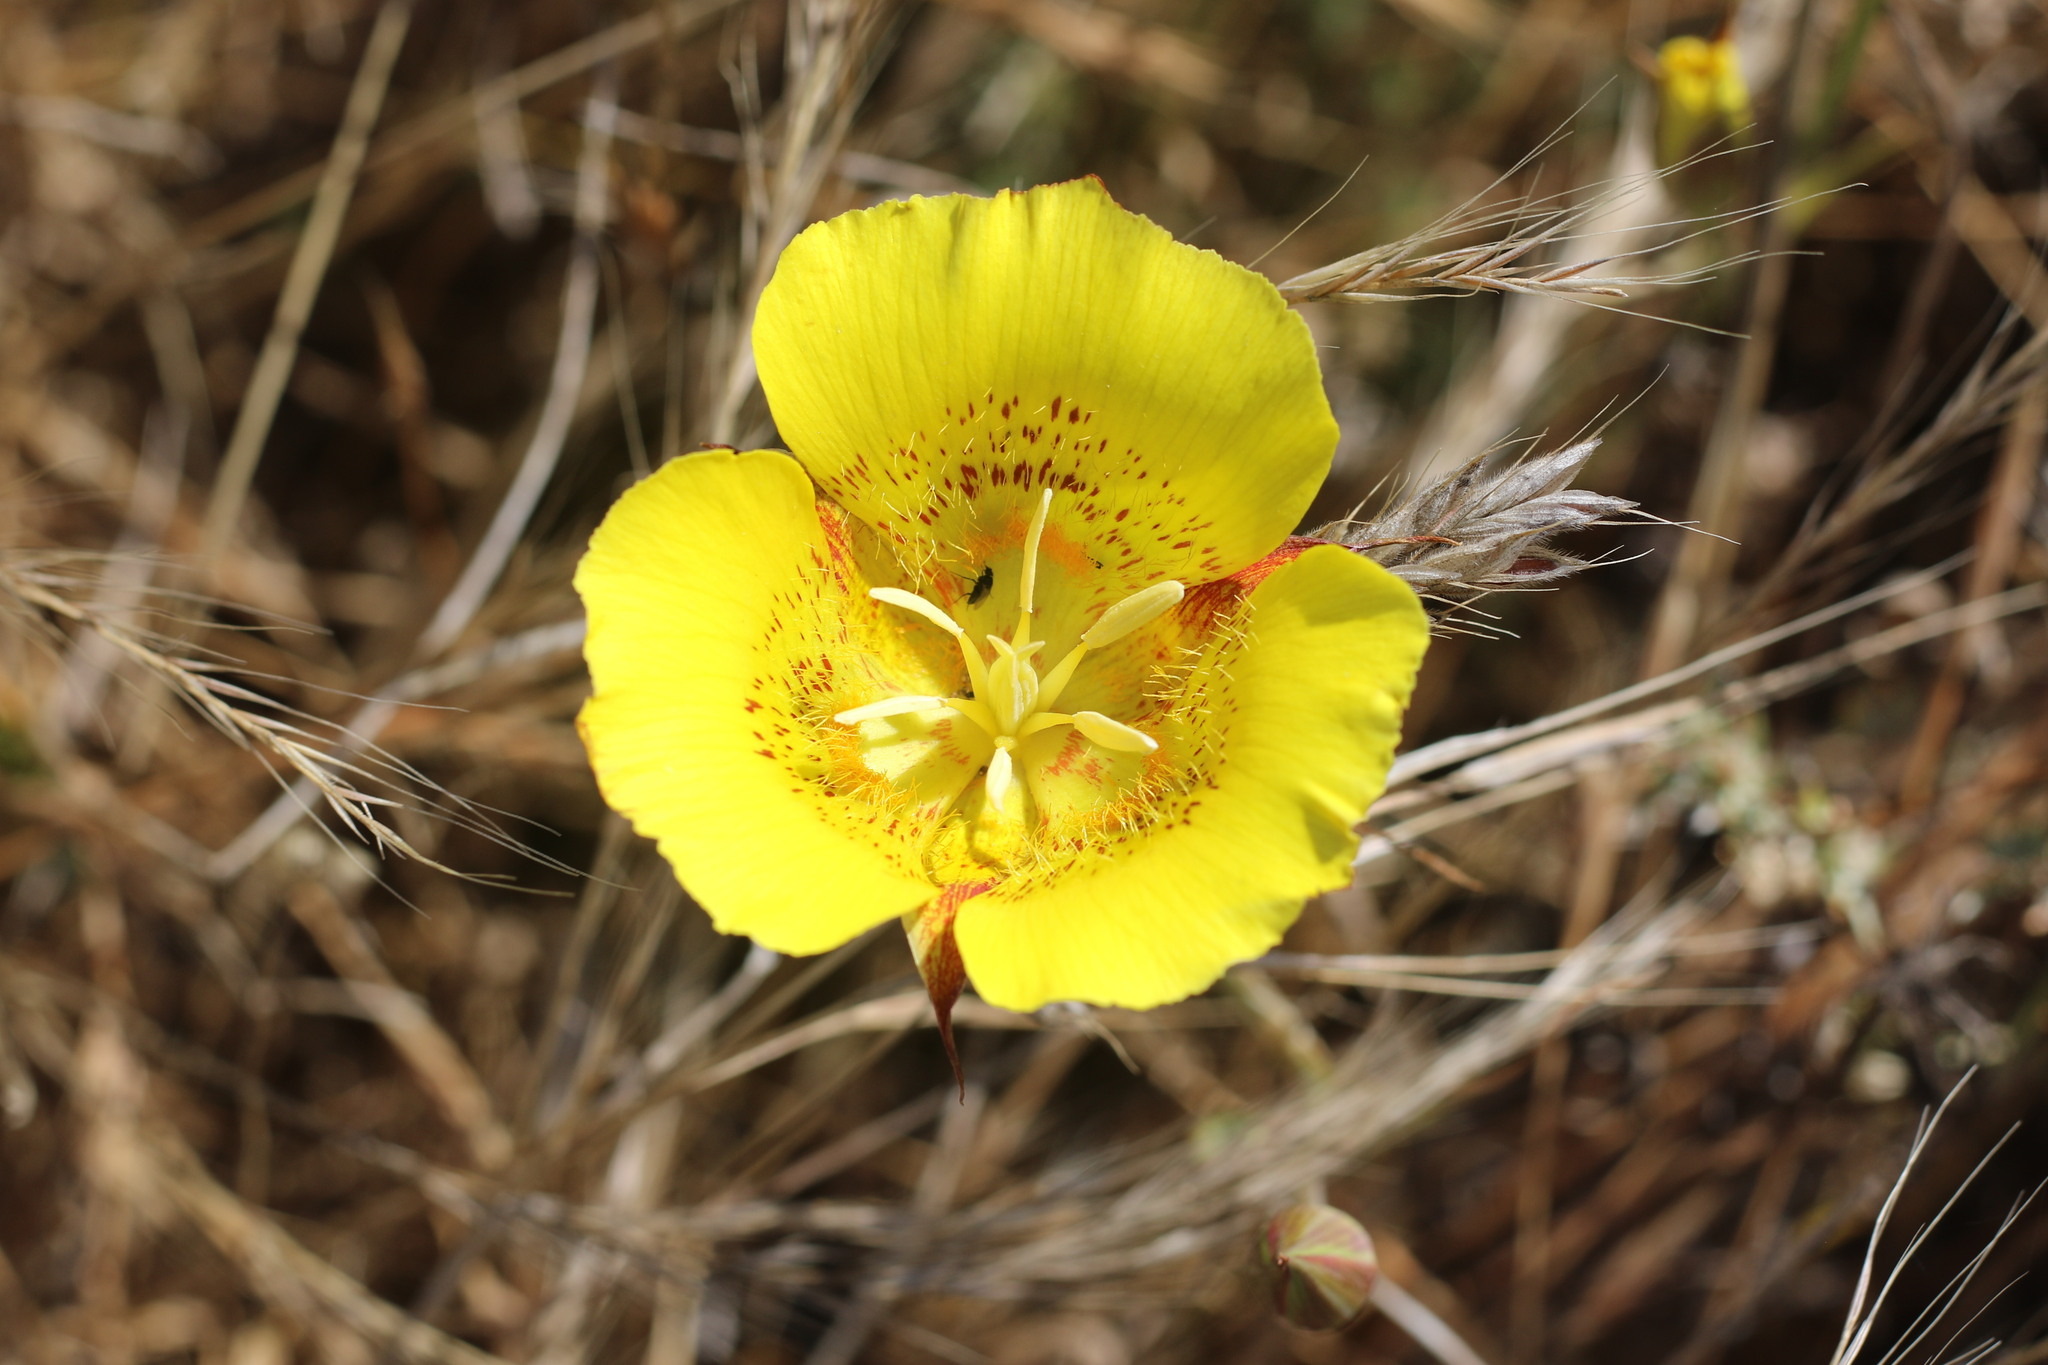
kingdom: Plantae
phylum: Tracheophyta
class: Liliopsida
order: Liliales
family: Liliaceae
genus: Calochortus
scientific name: Calochortus luteus
